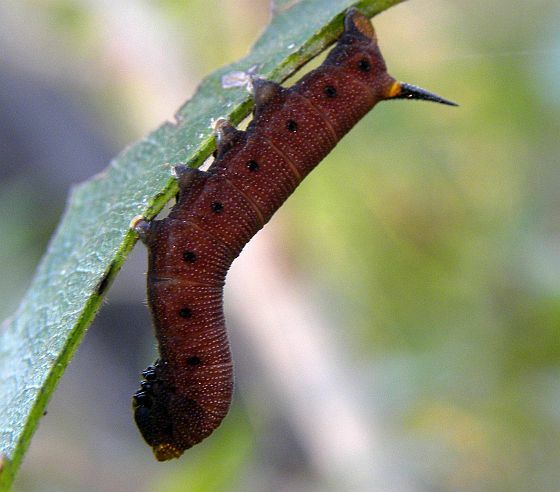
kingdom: Animalia
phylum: Arthropoda
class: Insecta
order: Lepidoptera
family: Sphingidae
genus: Hemaris
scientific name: Hemaris diffinis
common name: Bumblebee moth
